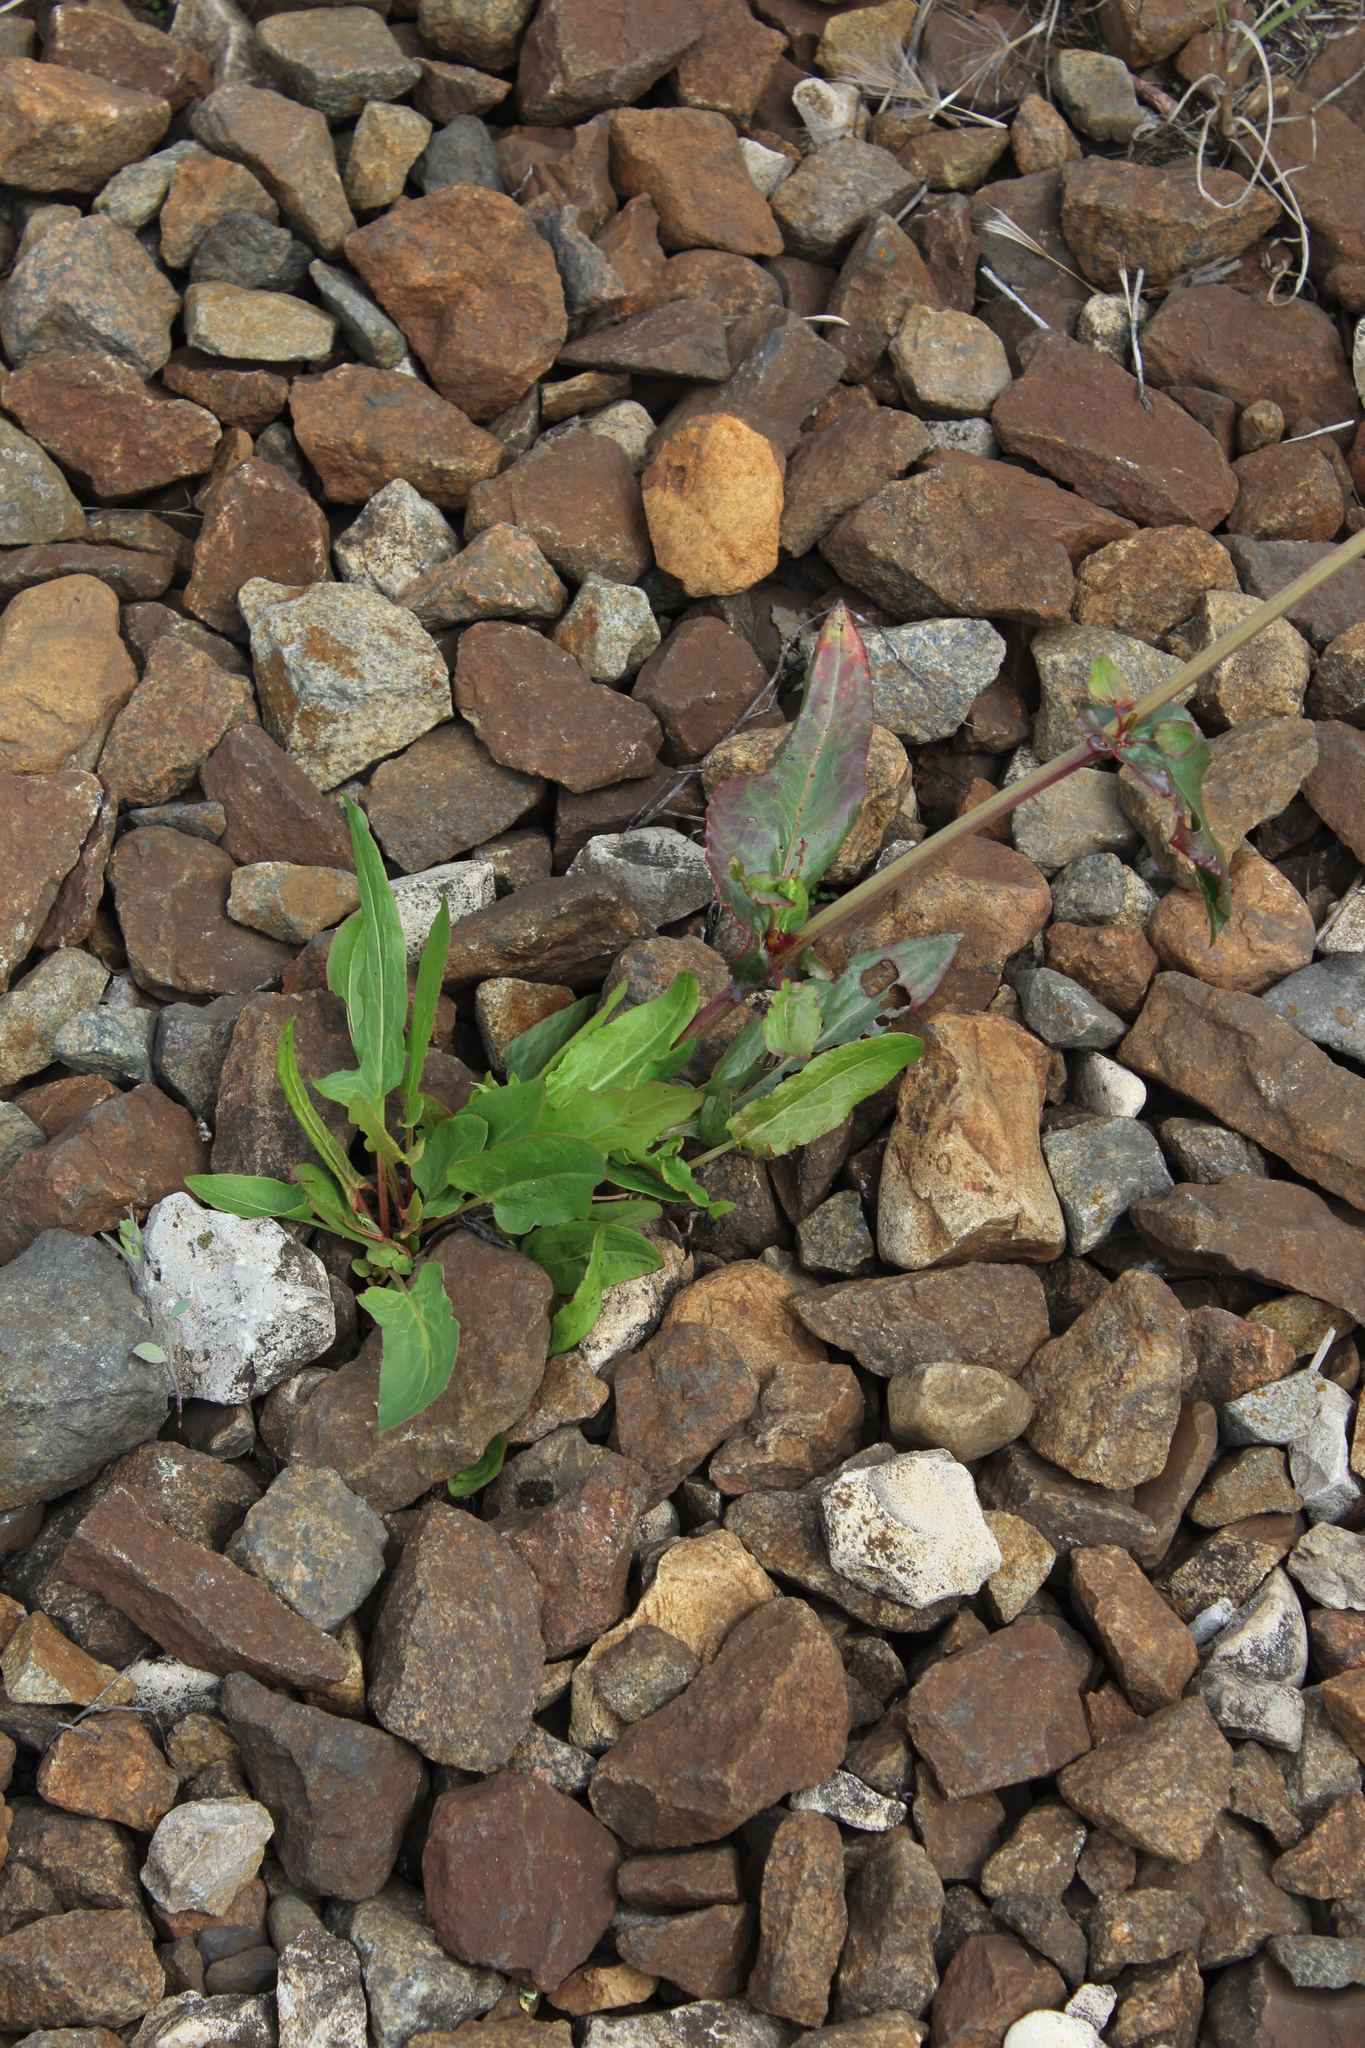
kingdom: Plantae
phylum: Tracheophyta
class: Magnoliopsida
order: Caryophyllales
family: Polygonaceae
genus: Rumex
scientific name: Rumex thyrsiflorus
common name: Garden sorrel
